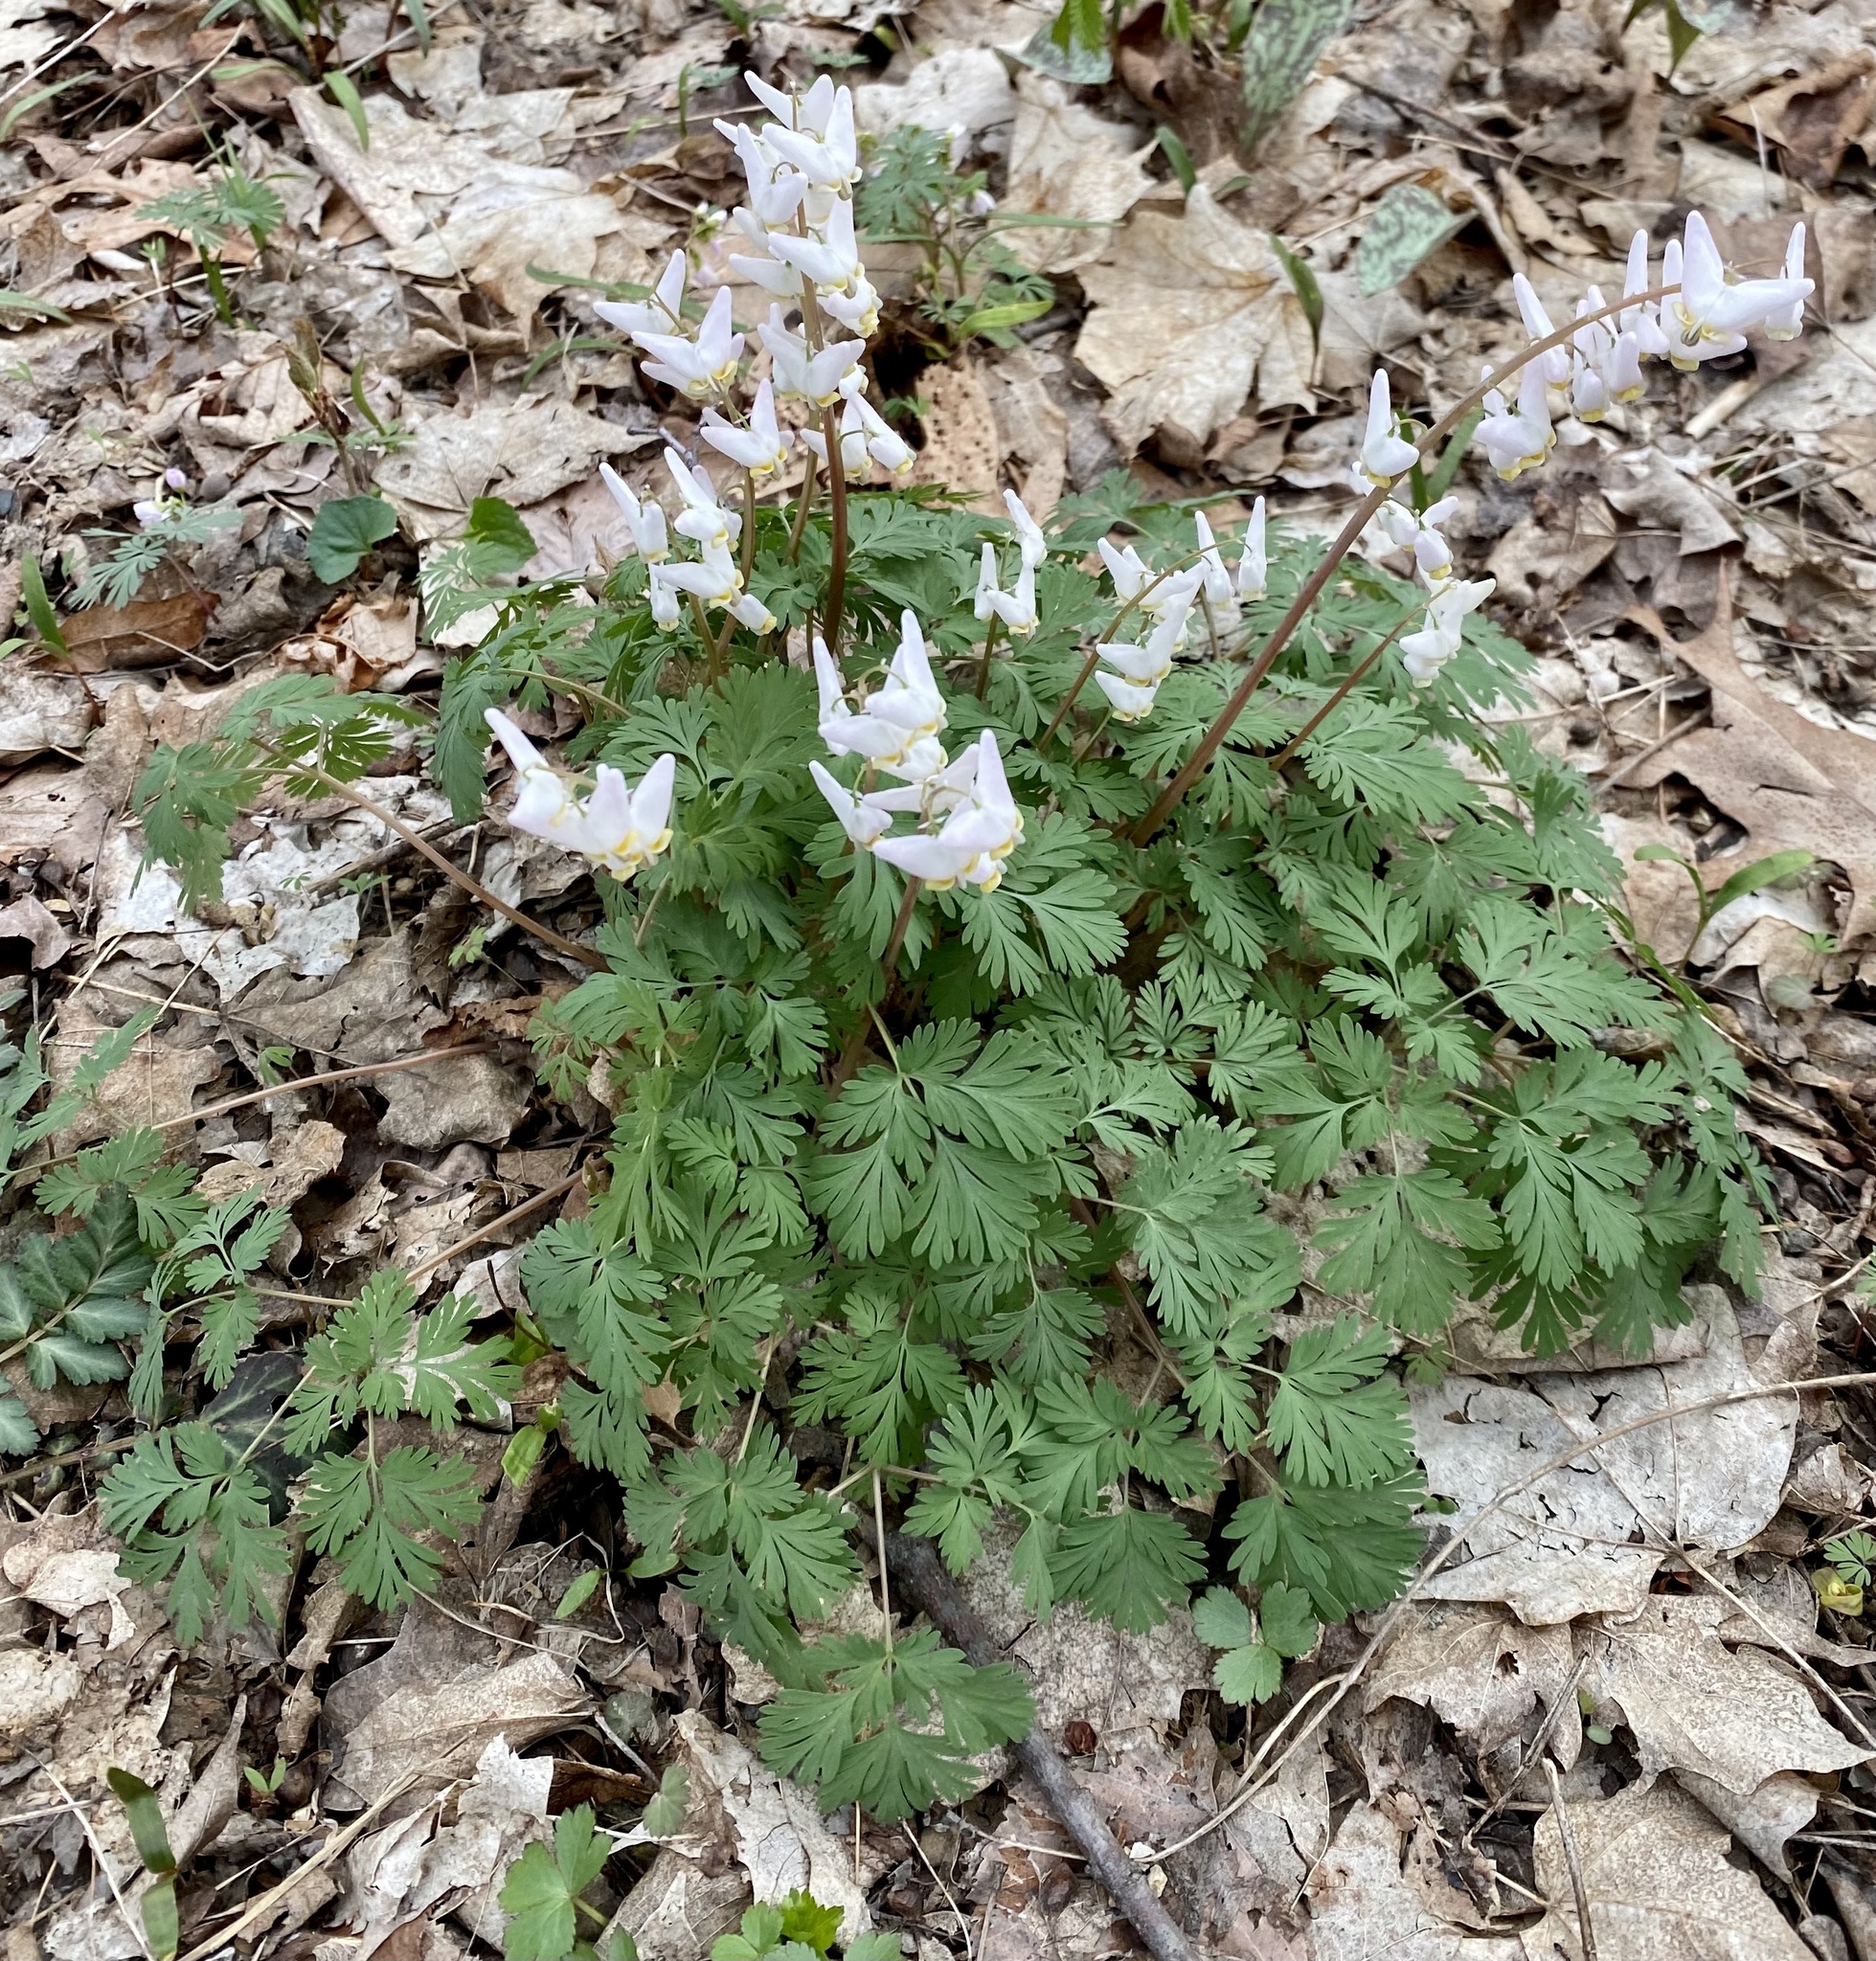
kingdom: Plantae
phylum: Tracheophyta
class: Magnoliopsida
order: Ranunculales
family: Papaveraceae
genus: Dicentra
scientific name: Dicentra cucullaria
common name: Dutchman's breeches
